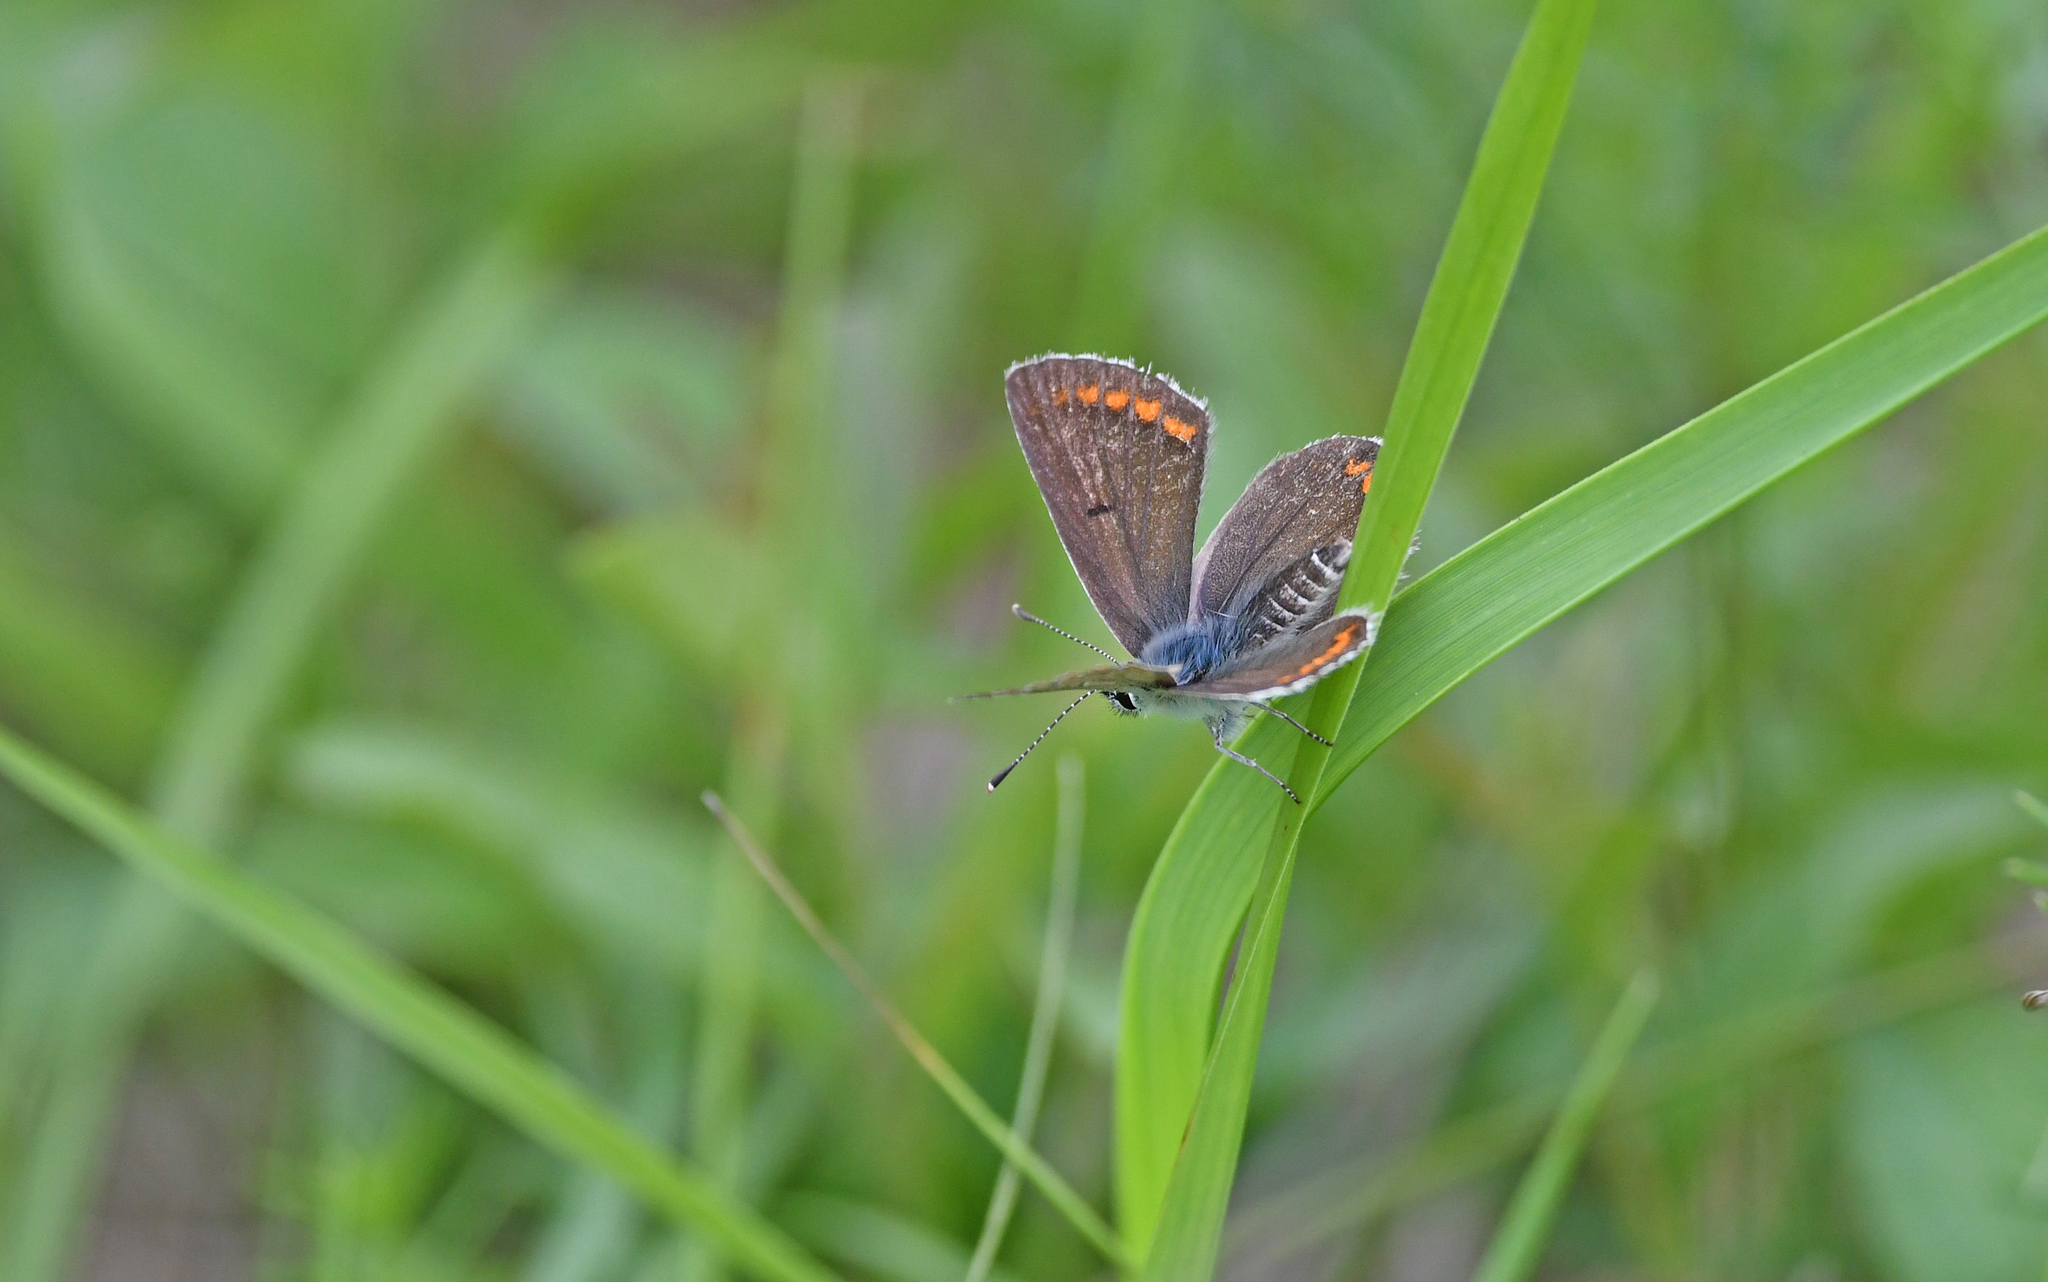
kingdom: Animalia
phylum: Arthropoda
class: Insecta
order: Lepidoptera
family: Lycaenidae
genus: Aricia
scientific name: Aricia agestis
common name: Brown argus
